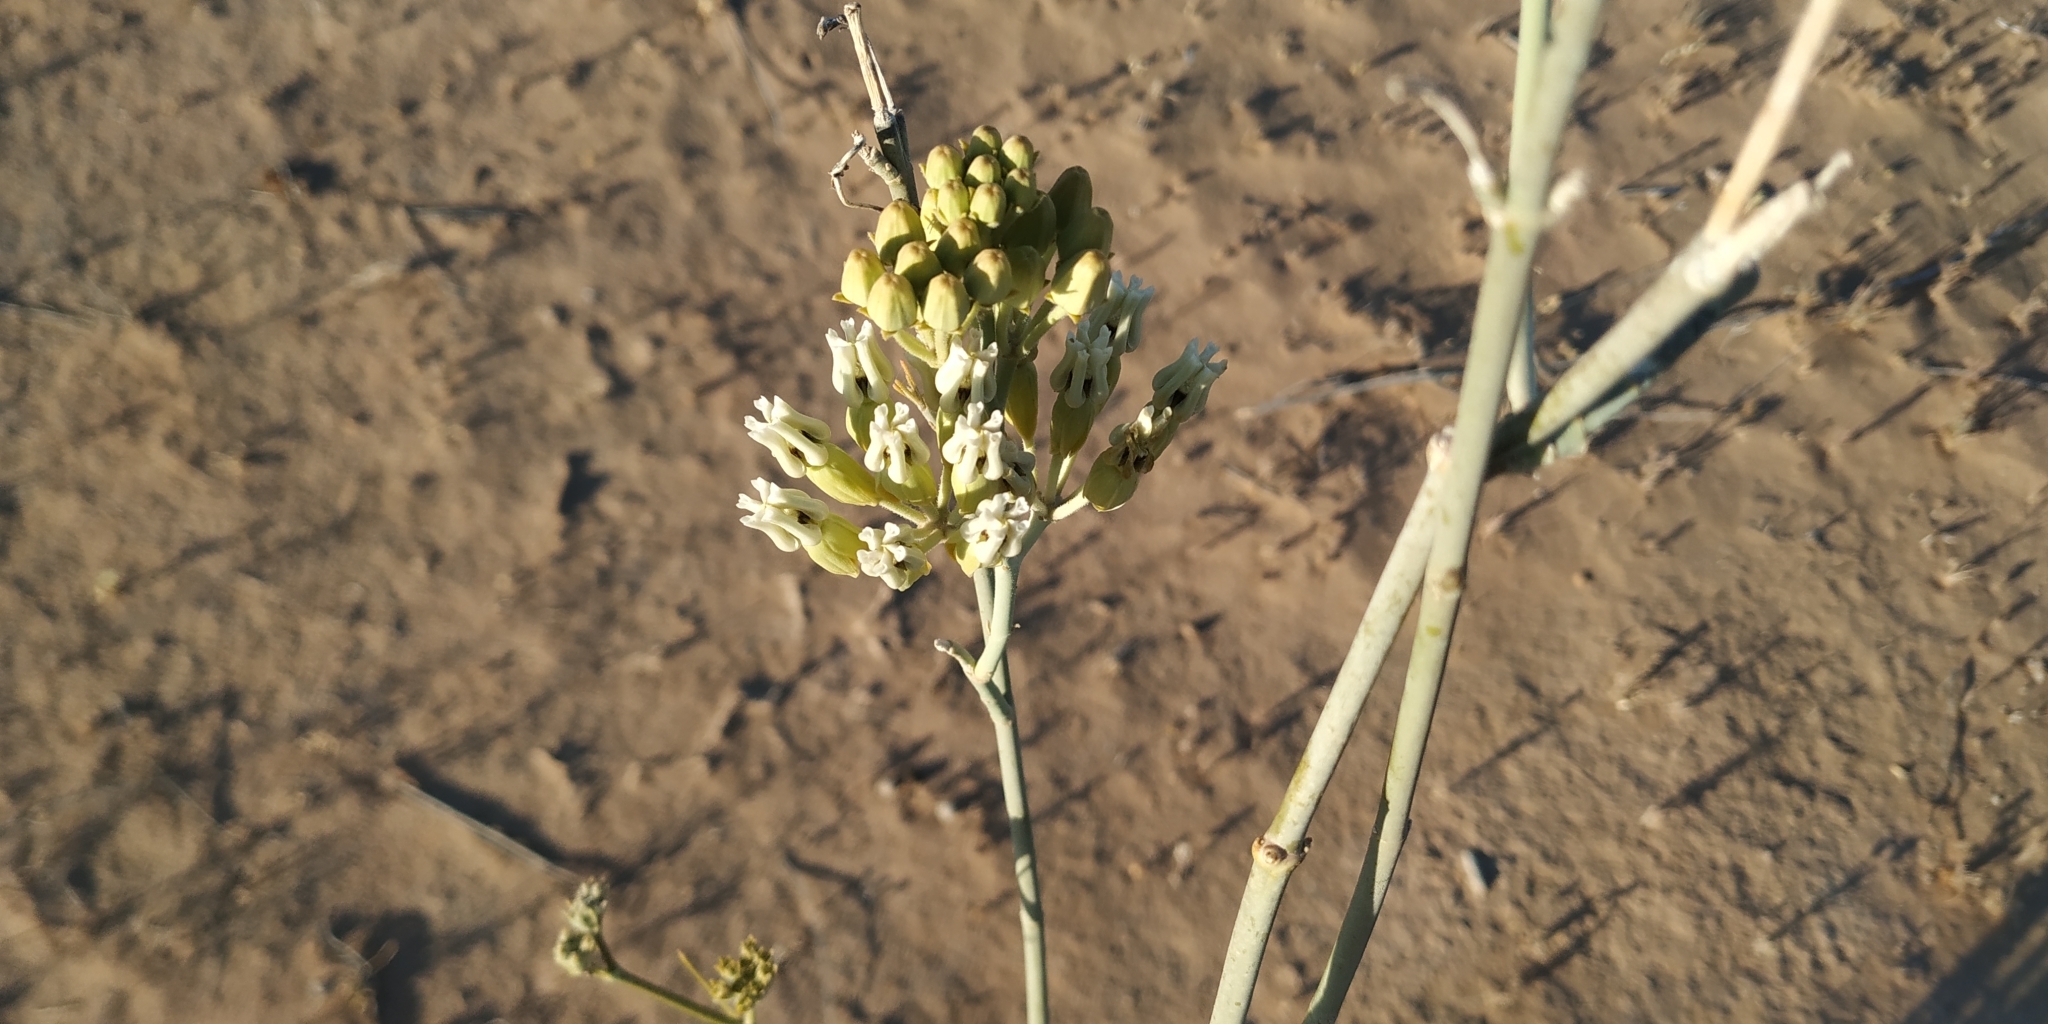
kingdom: Plantae
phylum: Tracheophyta
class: Magnoliopsida
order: Gentianales
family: Apocynaceae
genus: Asclepias
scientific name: Asclepias subulata
